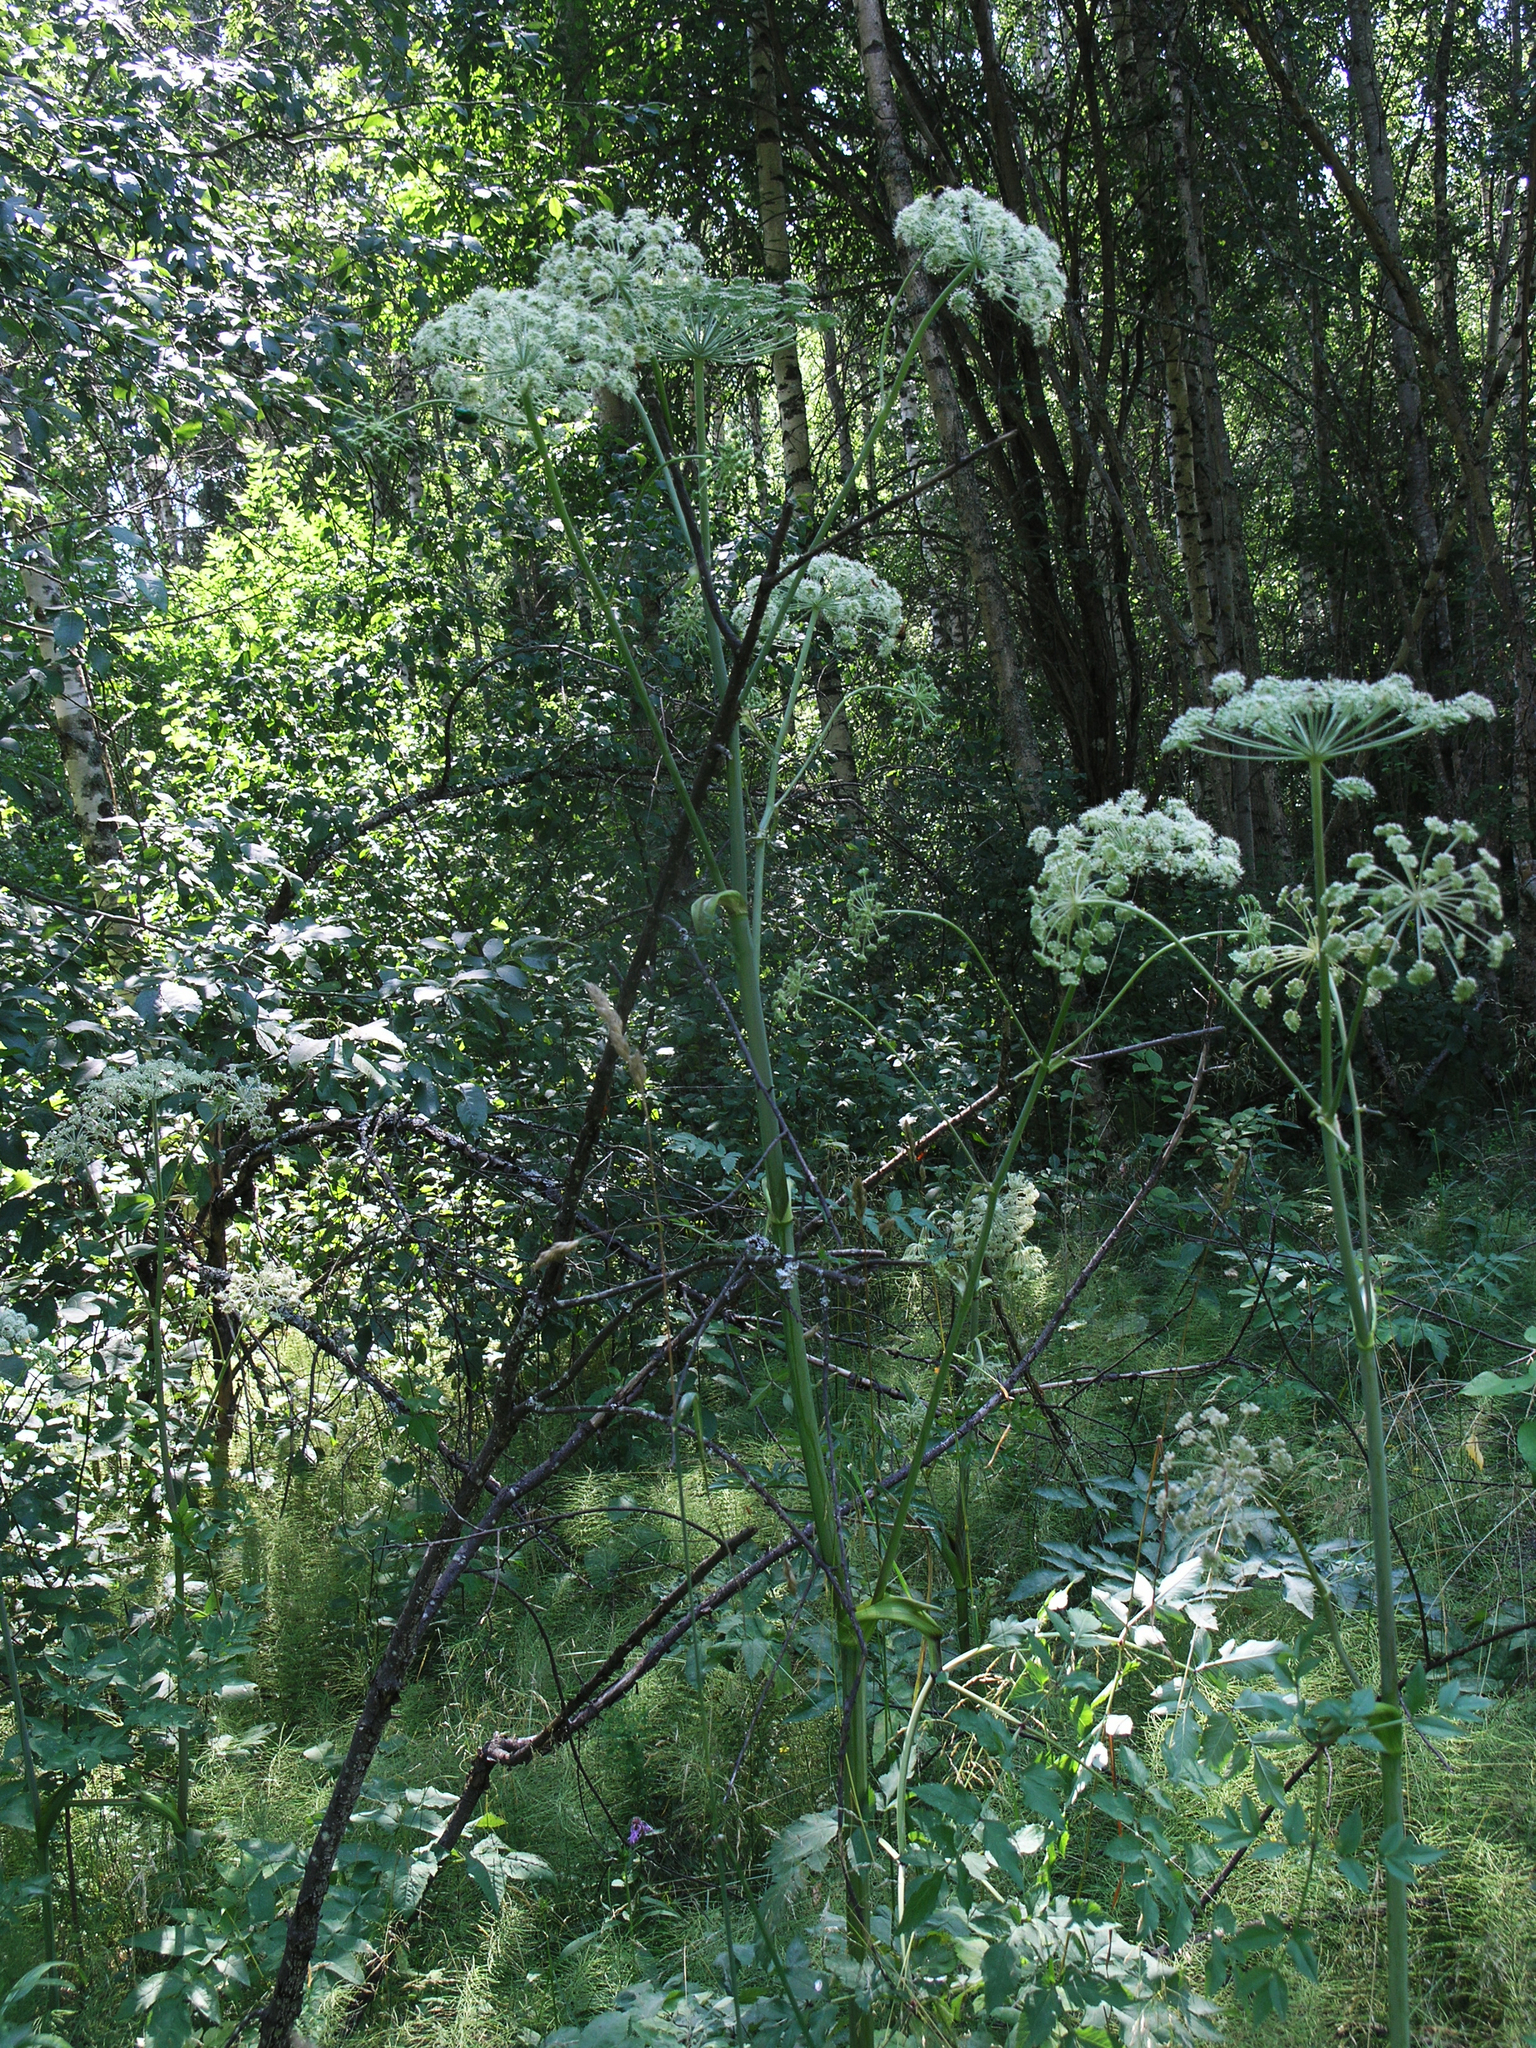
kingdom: Plantae
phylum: Tracheophyta
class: Magnoliopsida
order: Apiales
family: Apiaceae
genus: Angelica
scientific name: Angelica sylvestris
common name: Wild angelica
